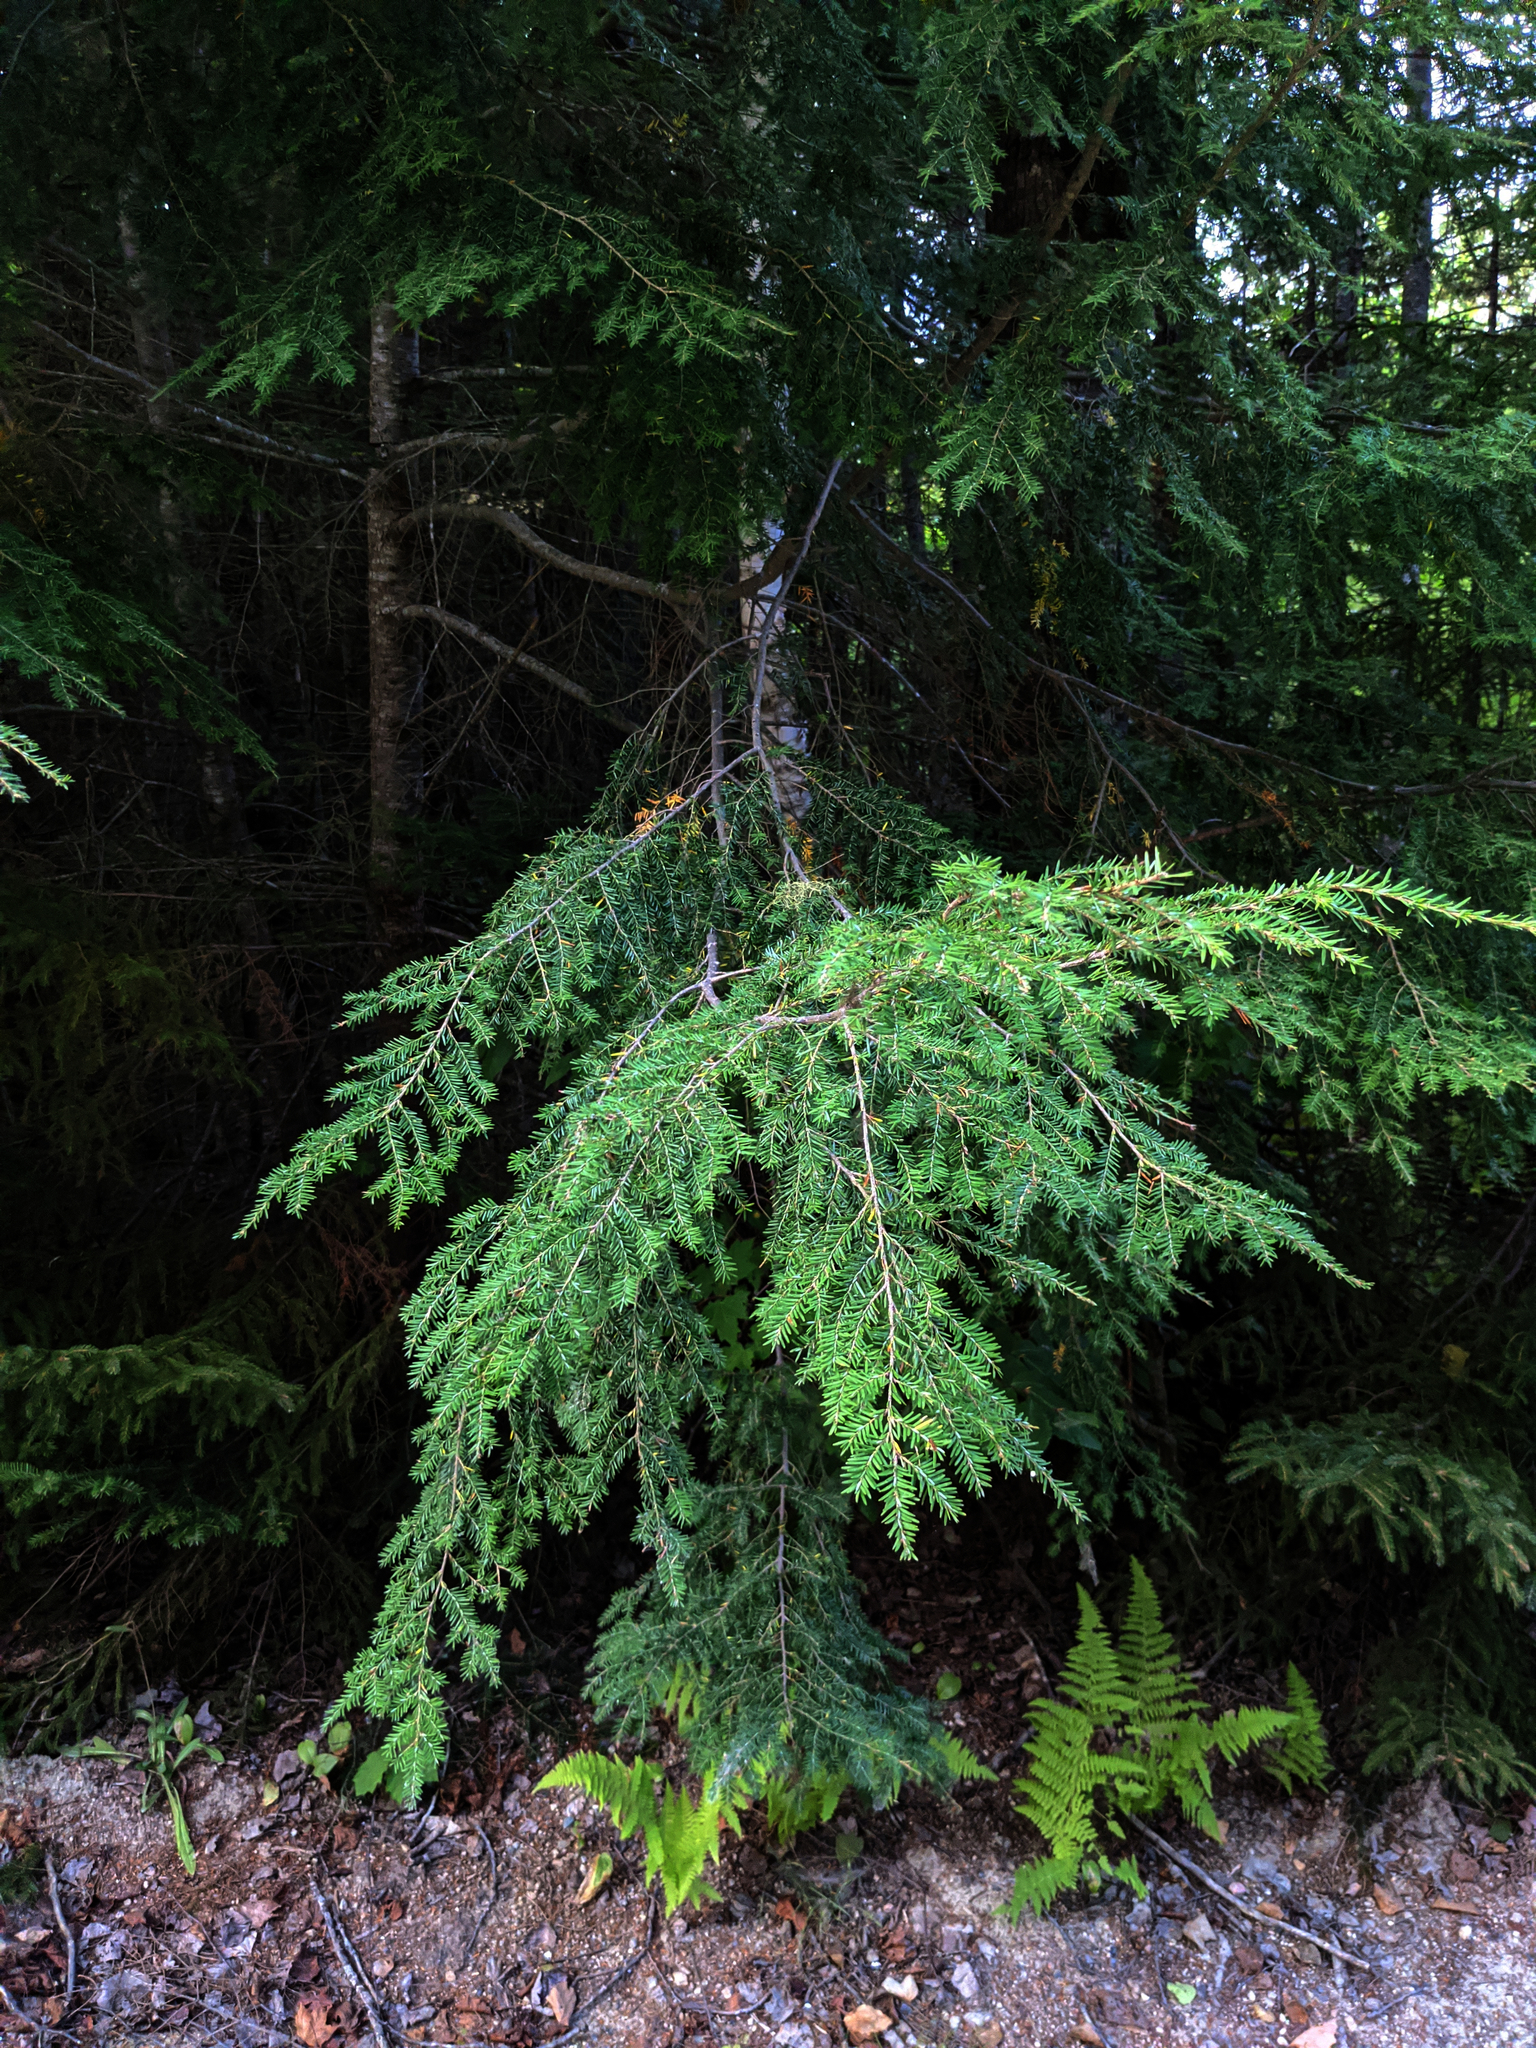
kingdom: Plantae
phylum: Tracheophyta
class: Pinopsida
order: Pinales
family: Pinaceae
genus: Tsuga
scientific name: Tsuga canadensis
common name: Eastern hemlock
